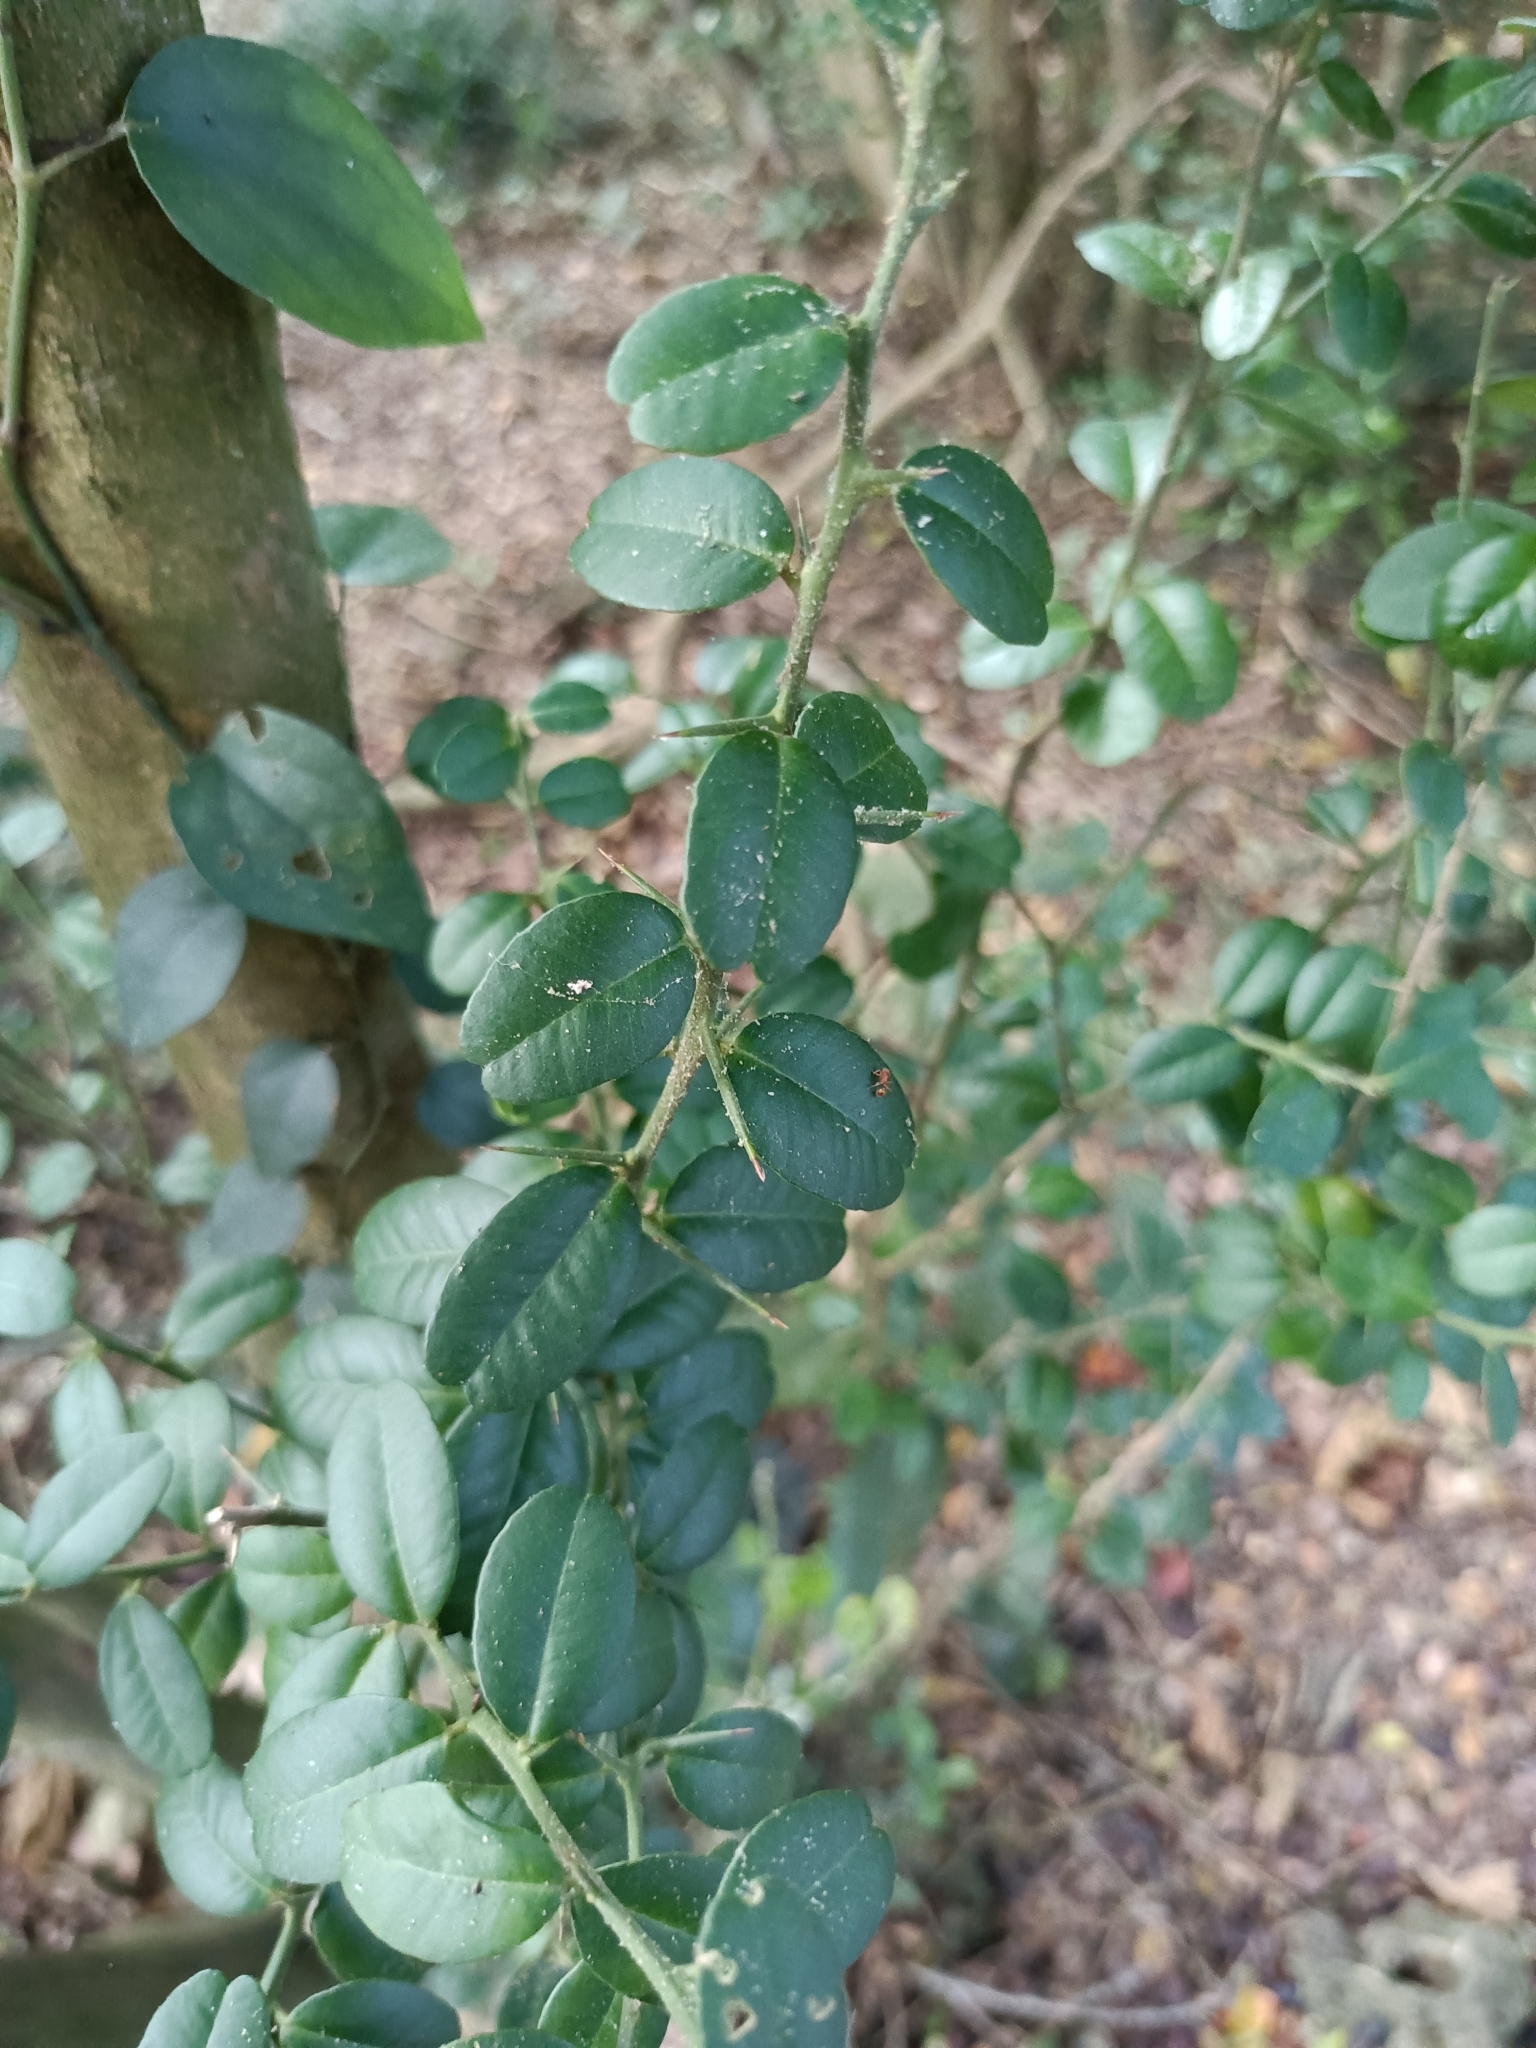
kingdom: Plantae
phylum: Tracheophyta
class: Magnoliopsida
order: Sapindales
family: Rutaceae
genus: Atalantia
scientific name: Atalantia buxifolia
